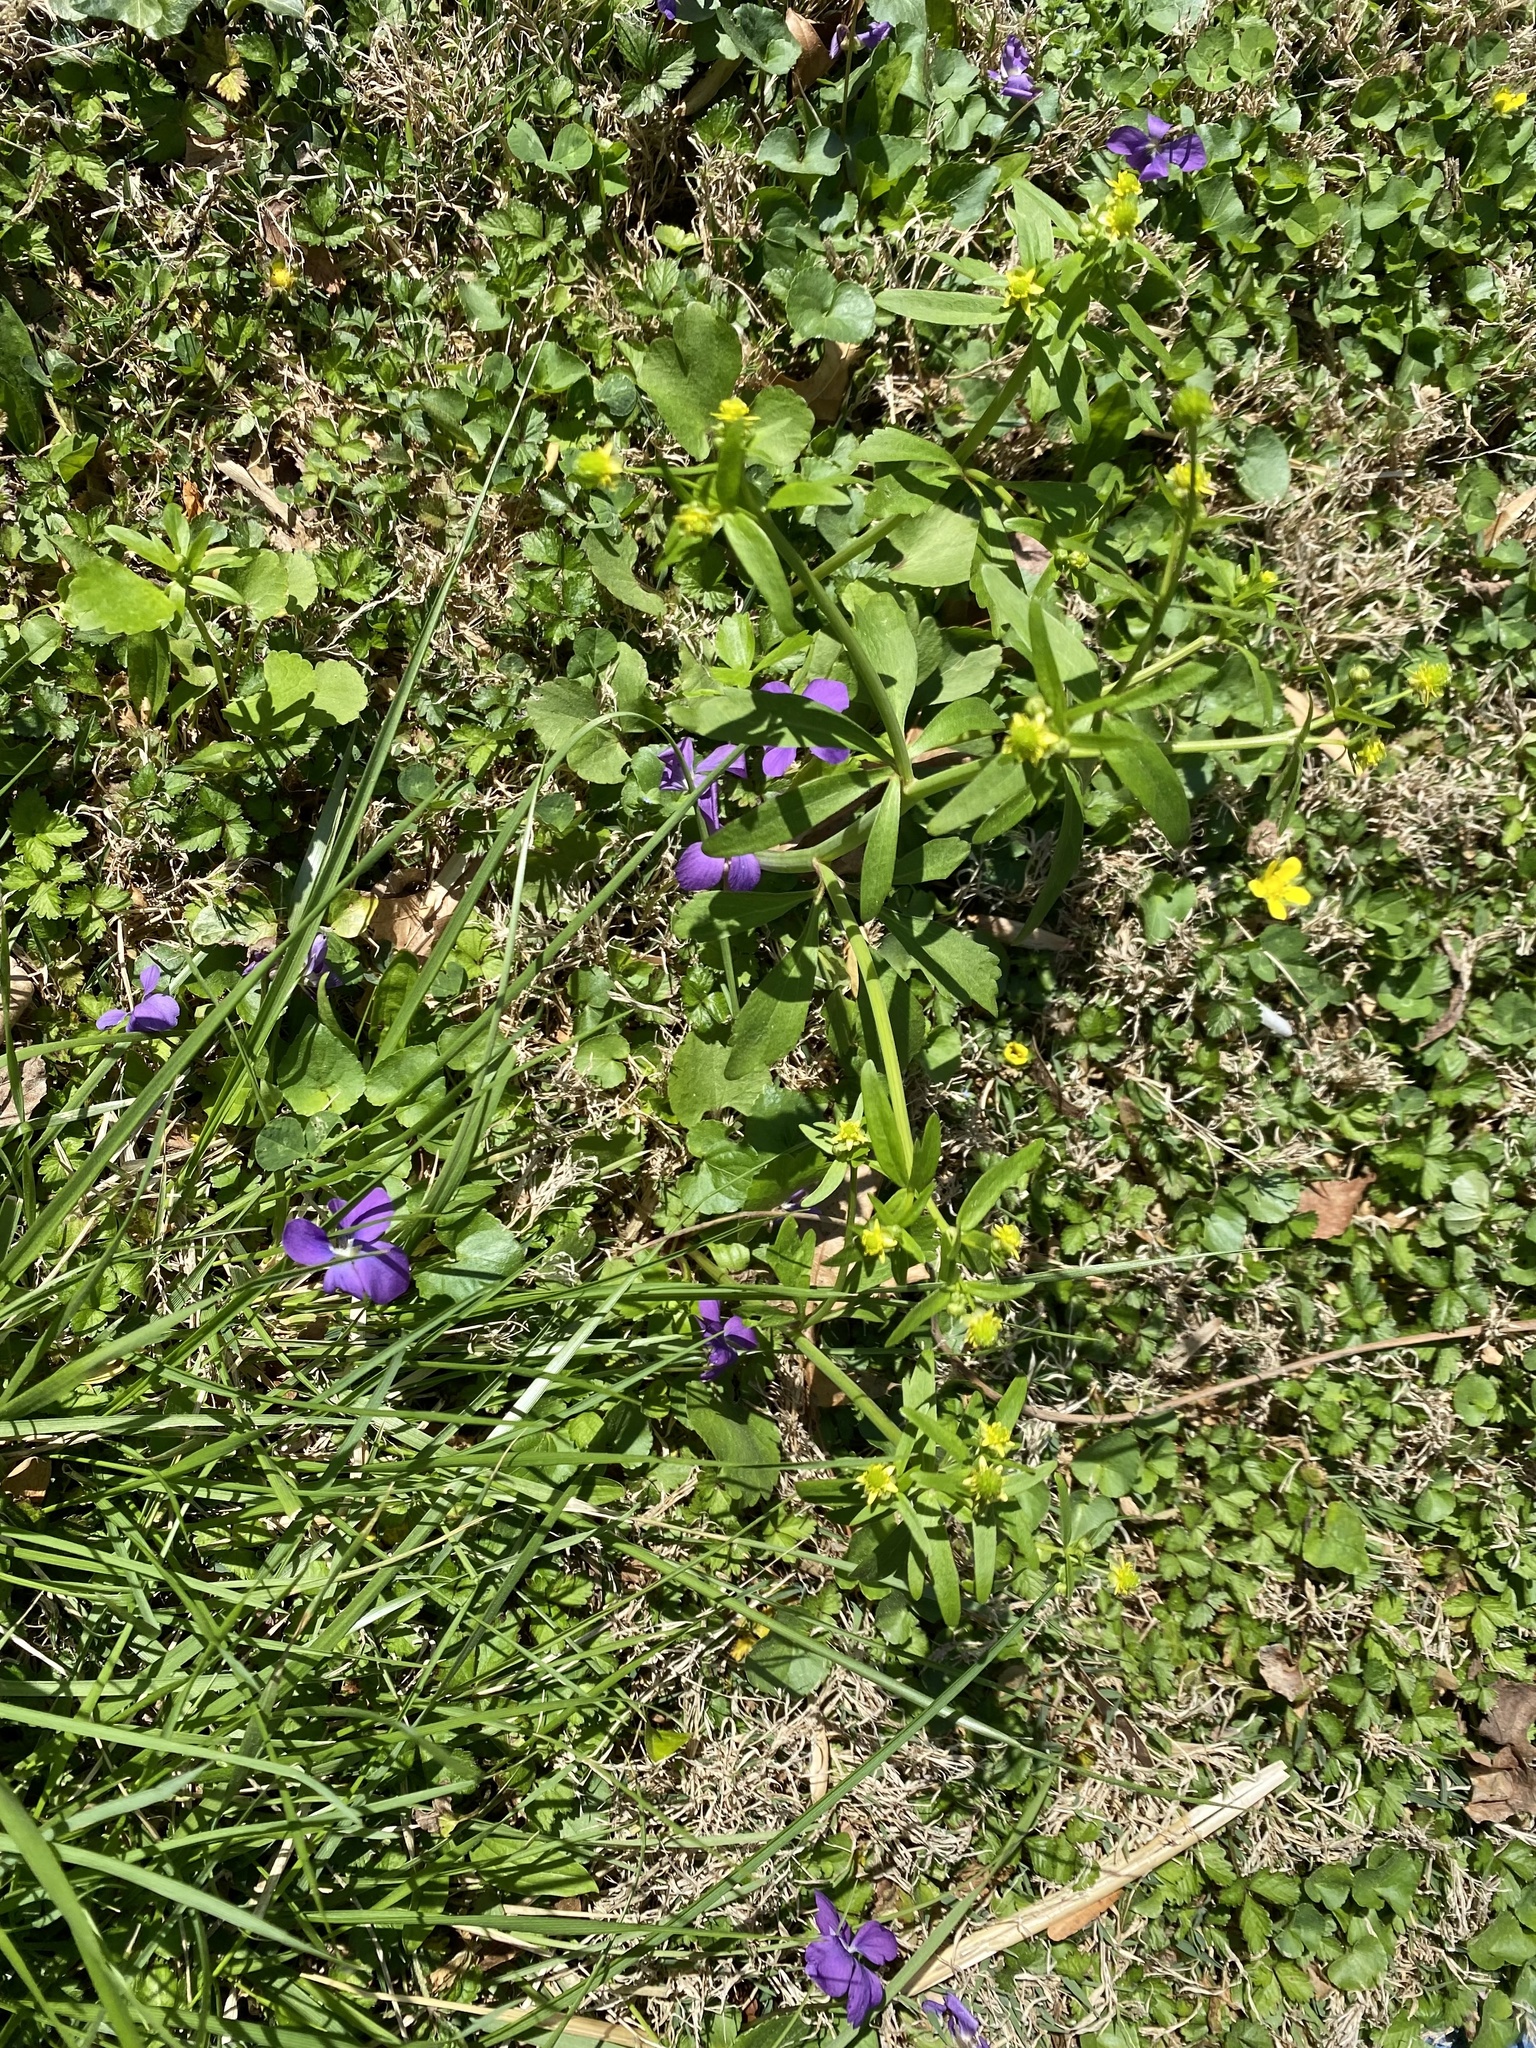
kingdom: Plantae
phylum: Tracheophyta
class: Magnoliopsida
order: Ranunculales
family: Ranunculaceae
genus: Ranunculus
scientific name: Ranunculus abortivus
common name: Early wood buttercup
